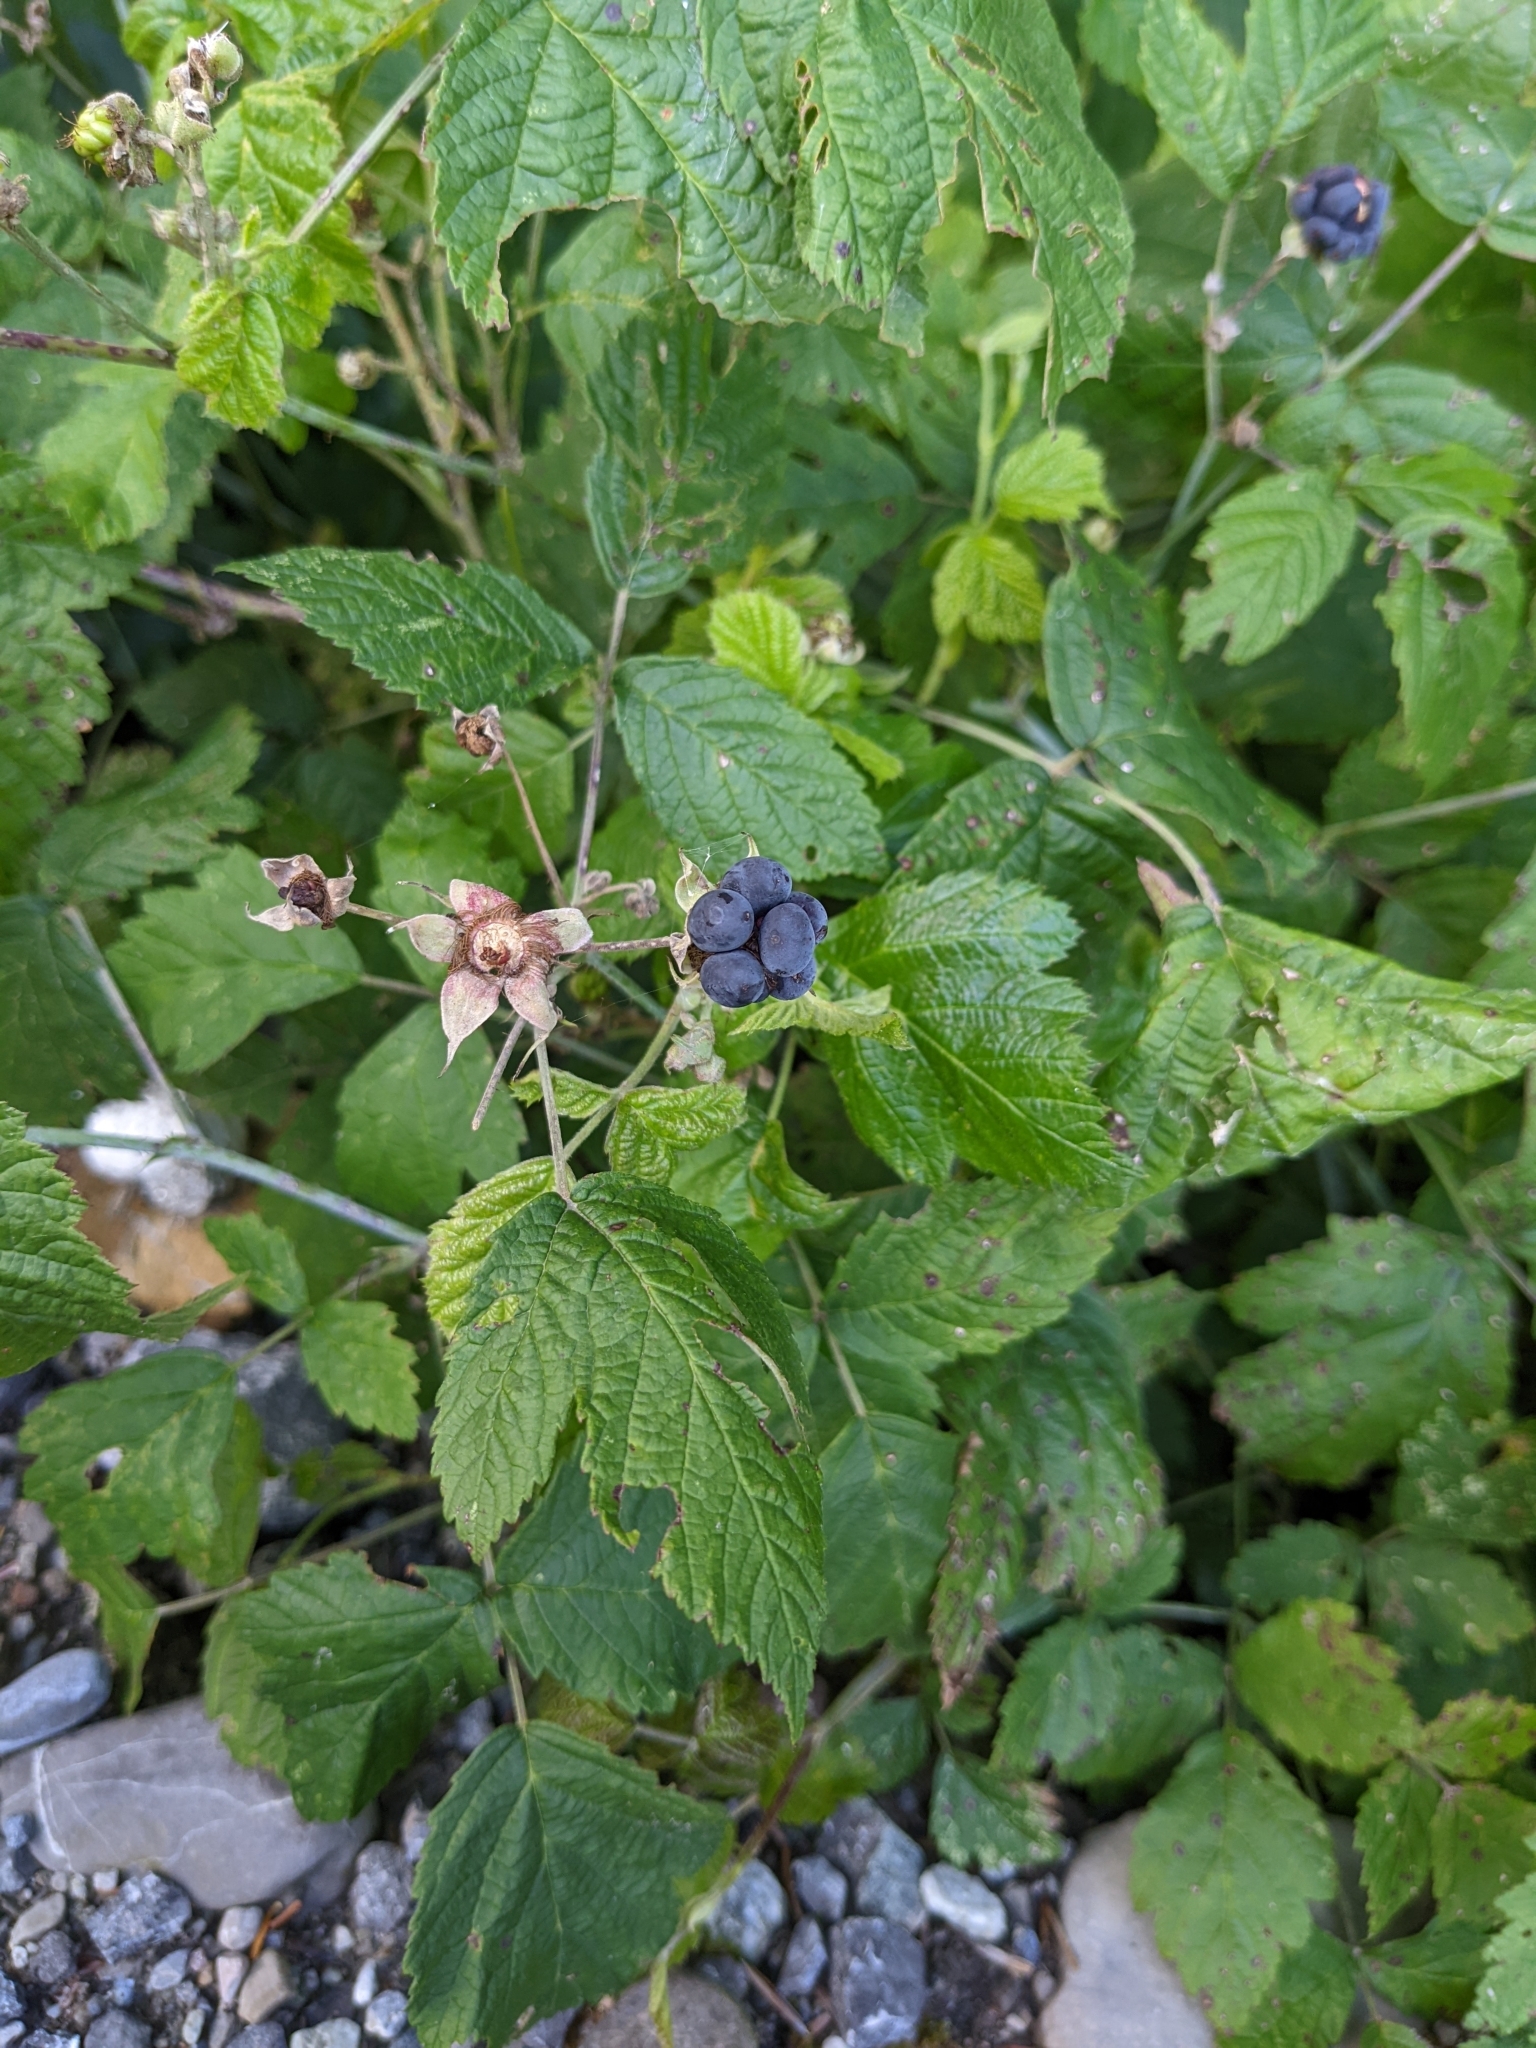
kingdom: Plantae
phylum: Tracheophyta
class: Magnoliopsida
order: Rosales
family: Rosaceae
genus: Rubus
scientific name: Rubus caesius
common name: Dewberry
